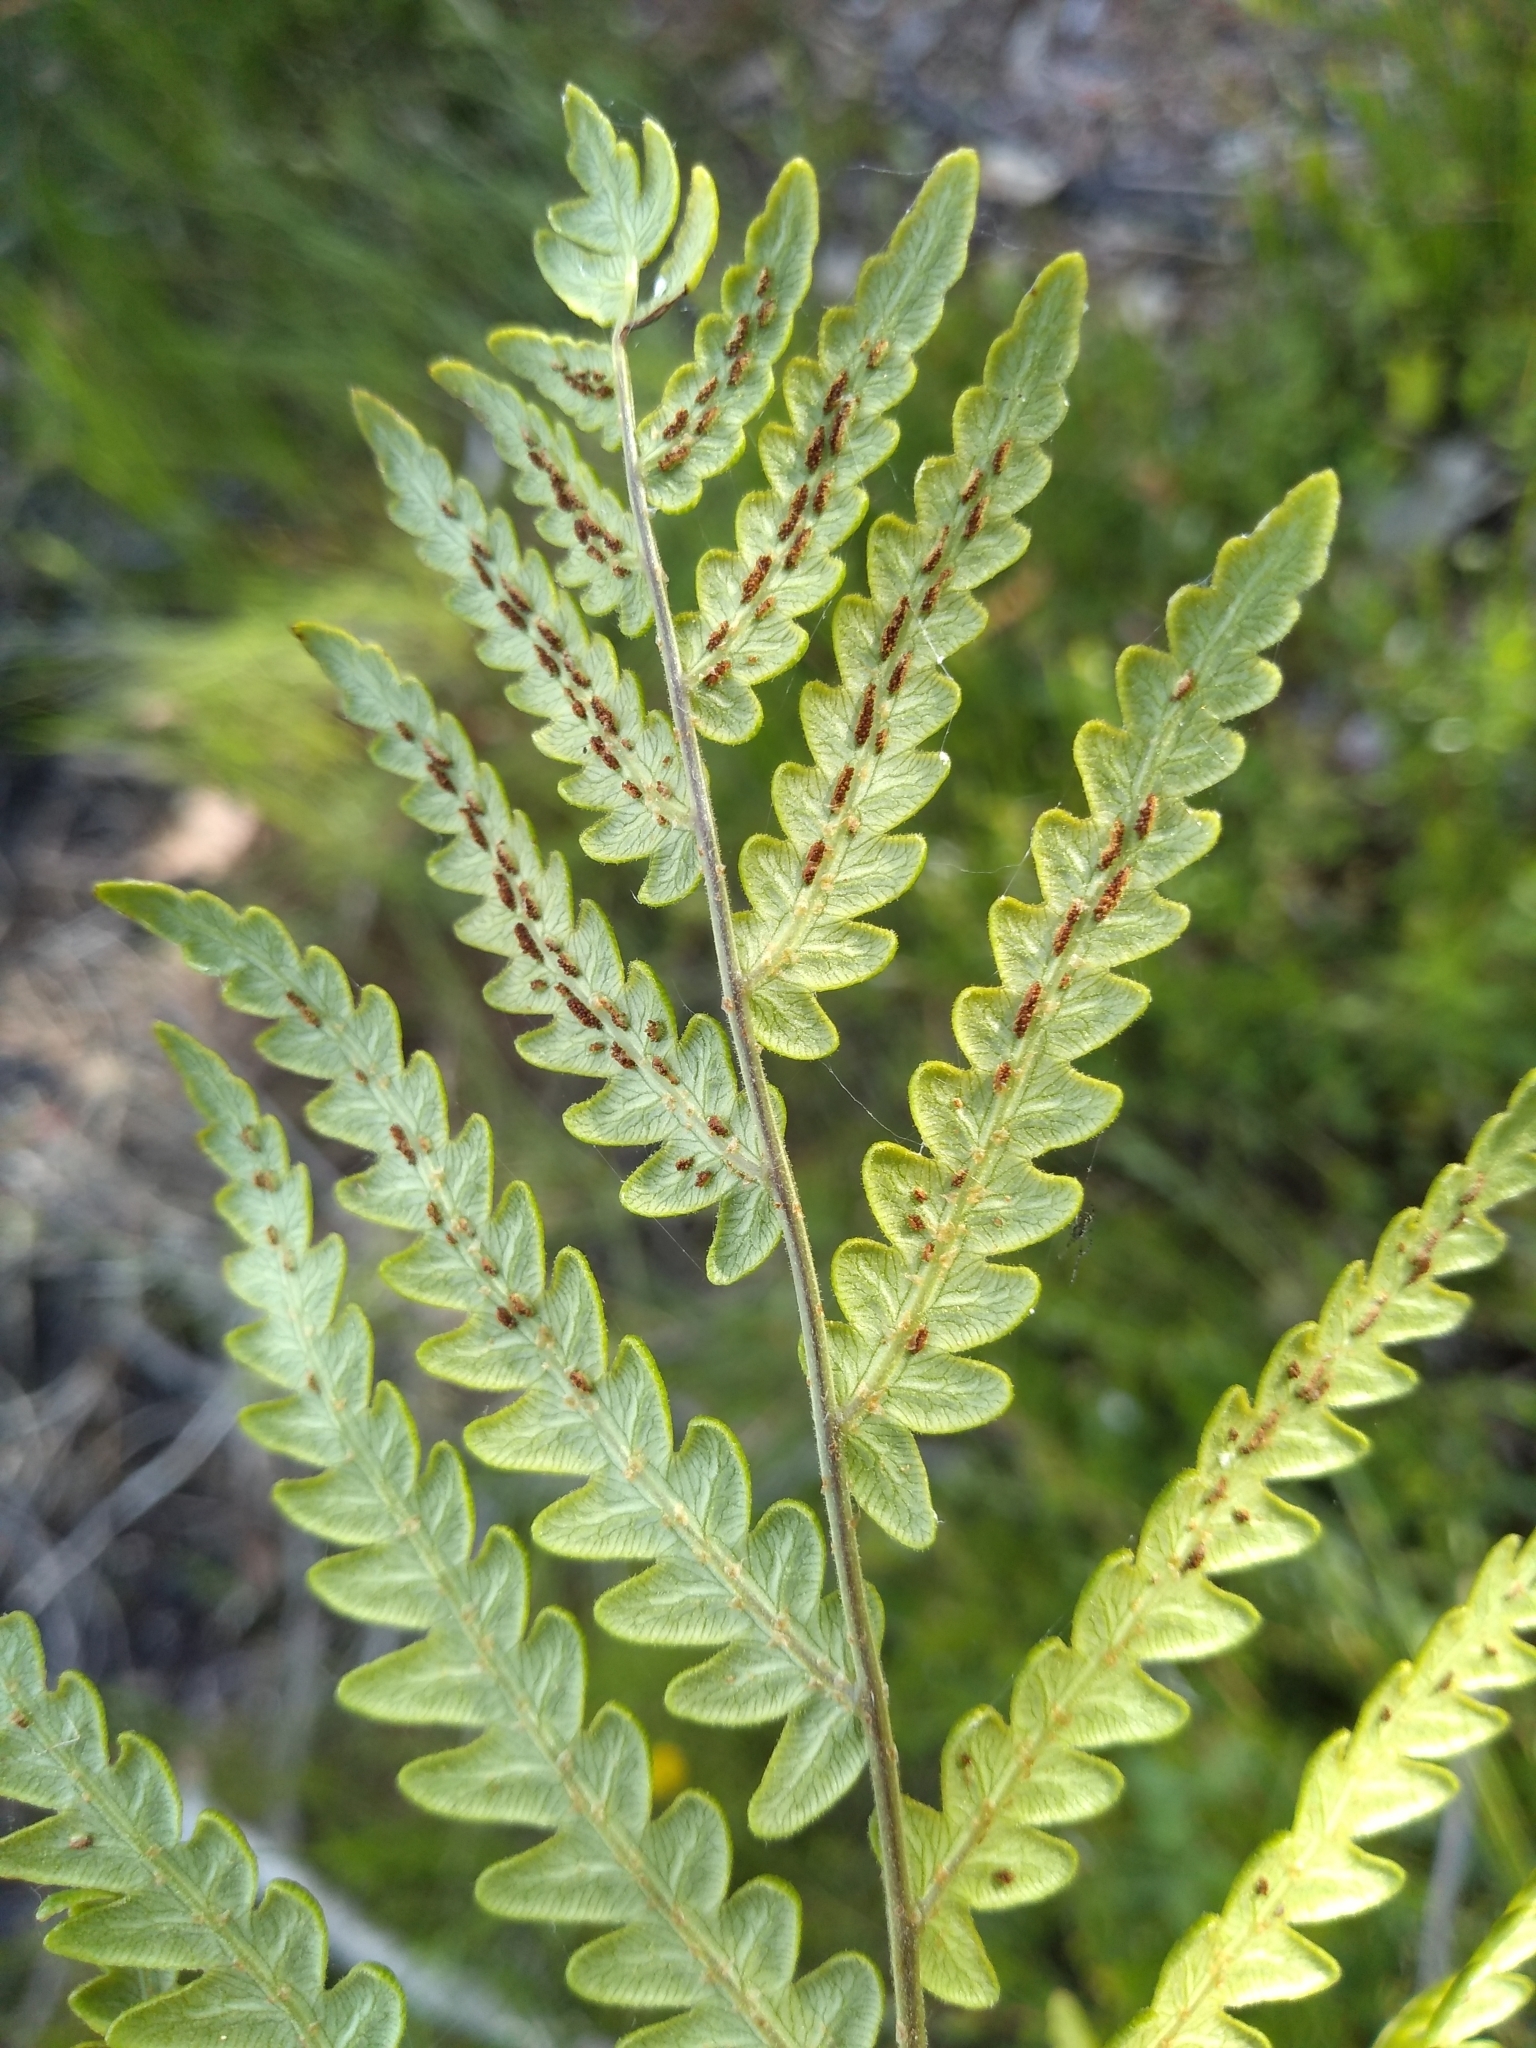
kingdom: Plantae
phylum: Tracheophyta
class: Polypodiopsida
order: Polypodiales
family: Blechnaceae
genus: Anchistea
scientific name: Anchistea virginica
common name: Virginia chain fern
